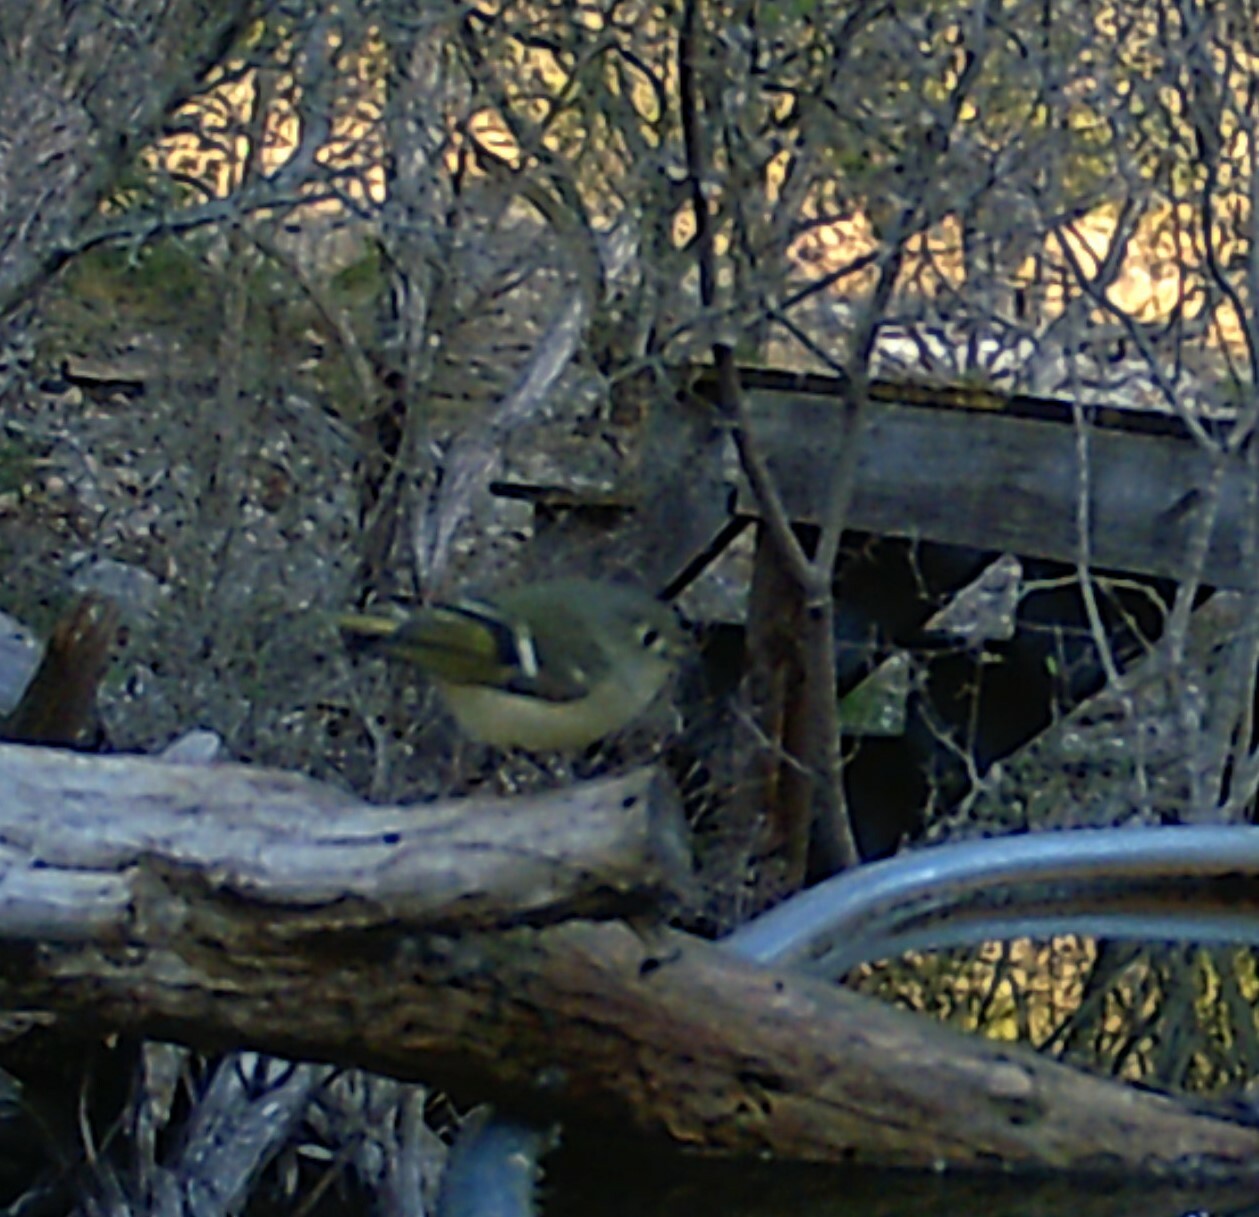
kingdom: Animalia
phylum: Chordata
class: Aves
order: Passeriformes
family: Regulidae
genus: Regulus
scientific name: Regulus calendula
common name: Ruby-crowned kinglet
